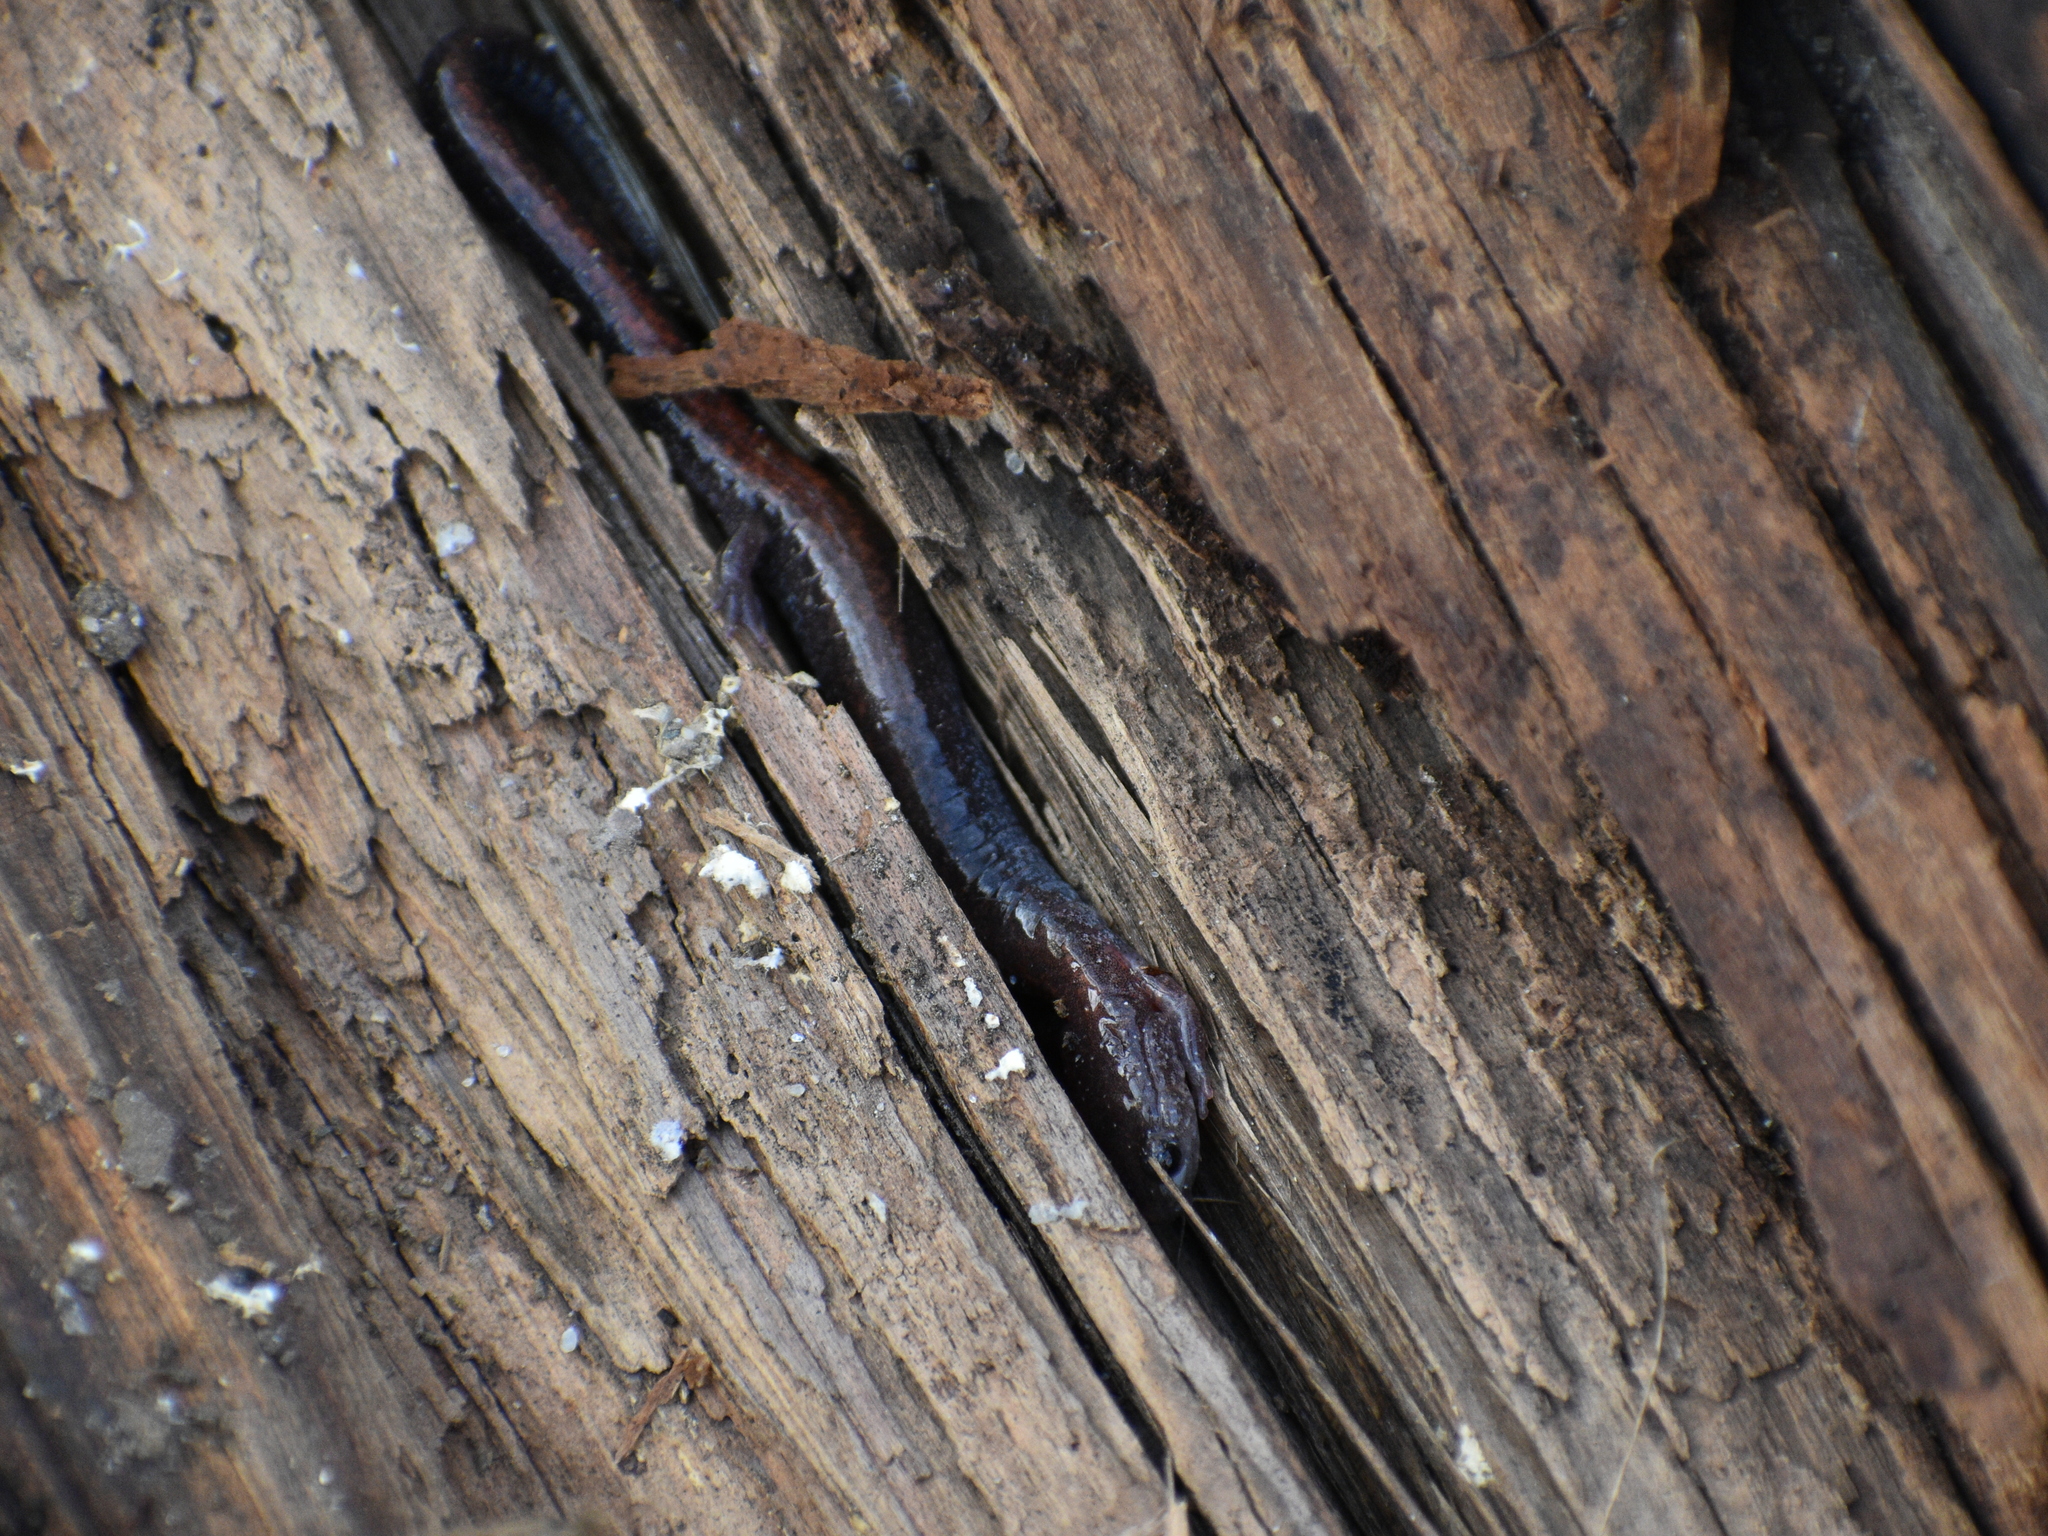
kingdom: Animalia
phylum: Chordata
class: Amphibia
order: Caudata
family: Plethodontidae
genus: Plethodon
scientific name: Plethodon cinereus
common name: Redback salamander
